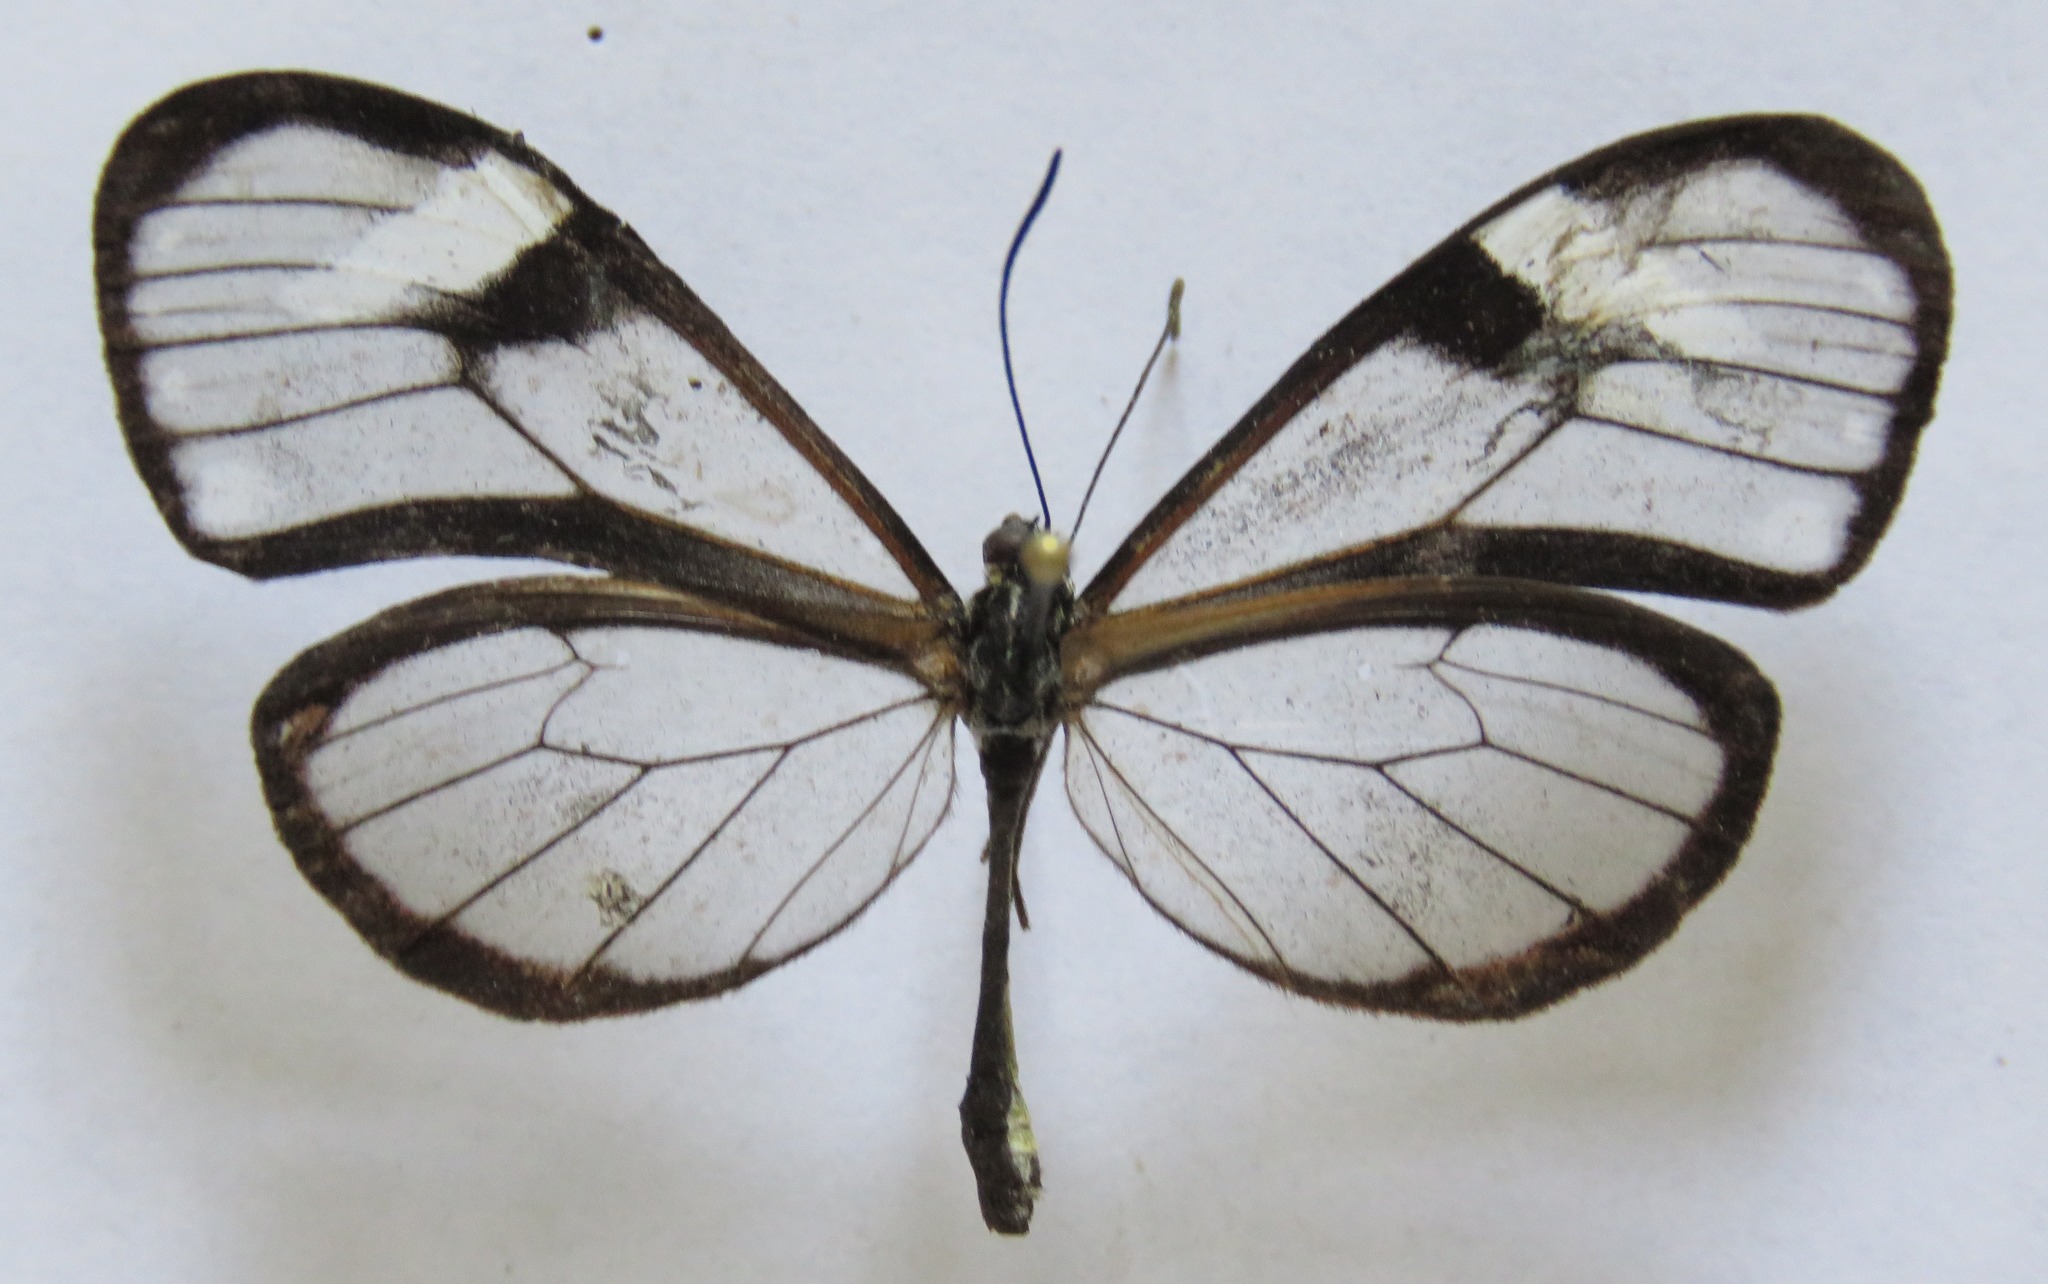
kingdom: Animalia
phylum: Arthropoda
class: Insecta
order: Lepidoptera
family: Nymphalidae
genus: Pteronymia
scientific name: Pteronymia alcmena
